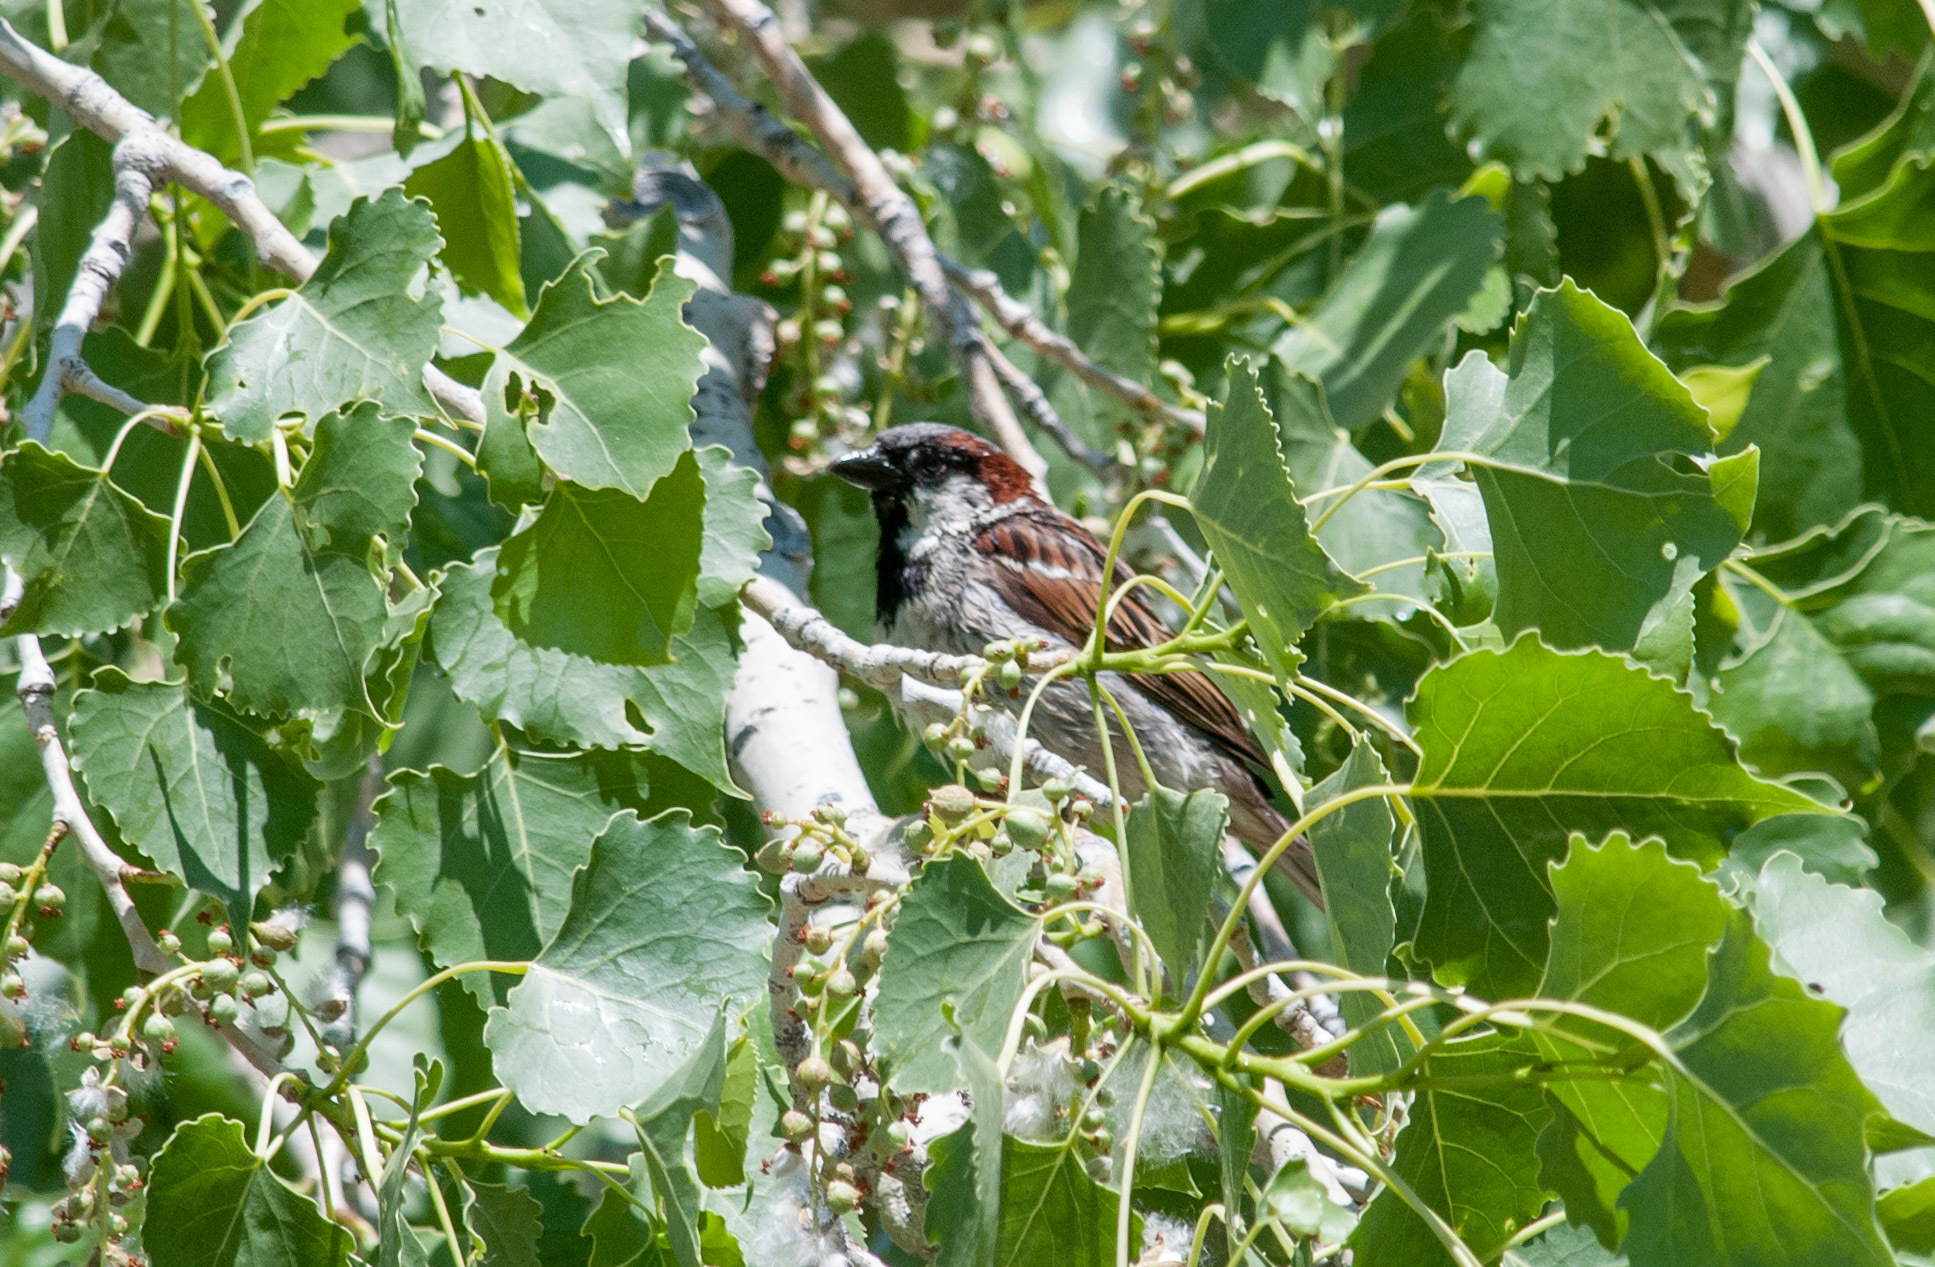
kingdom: Animalia
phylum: Chordata
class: Aves
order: Passeriformes
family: Passeridae
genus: Passer
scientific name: Passer domesticus
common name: House sparrow
